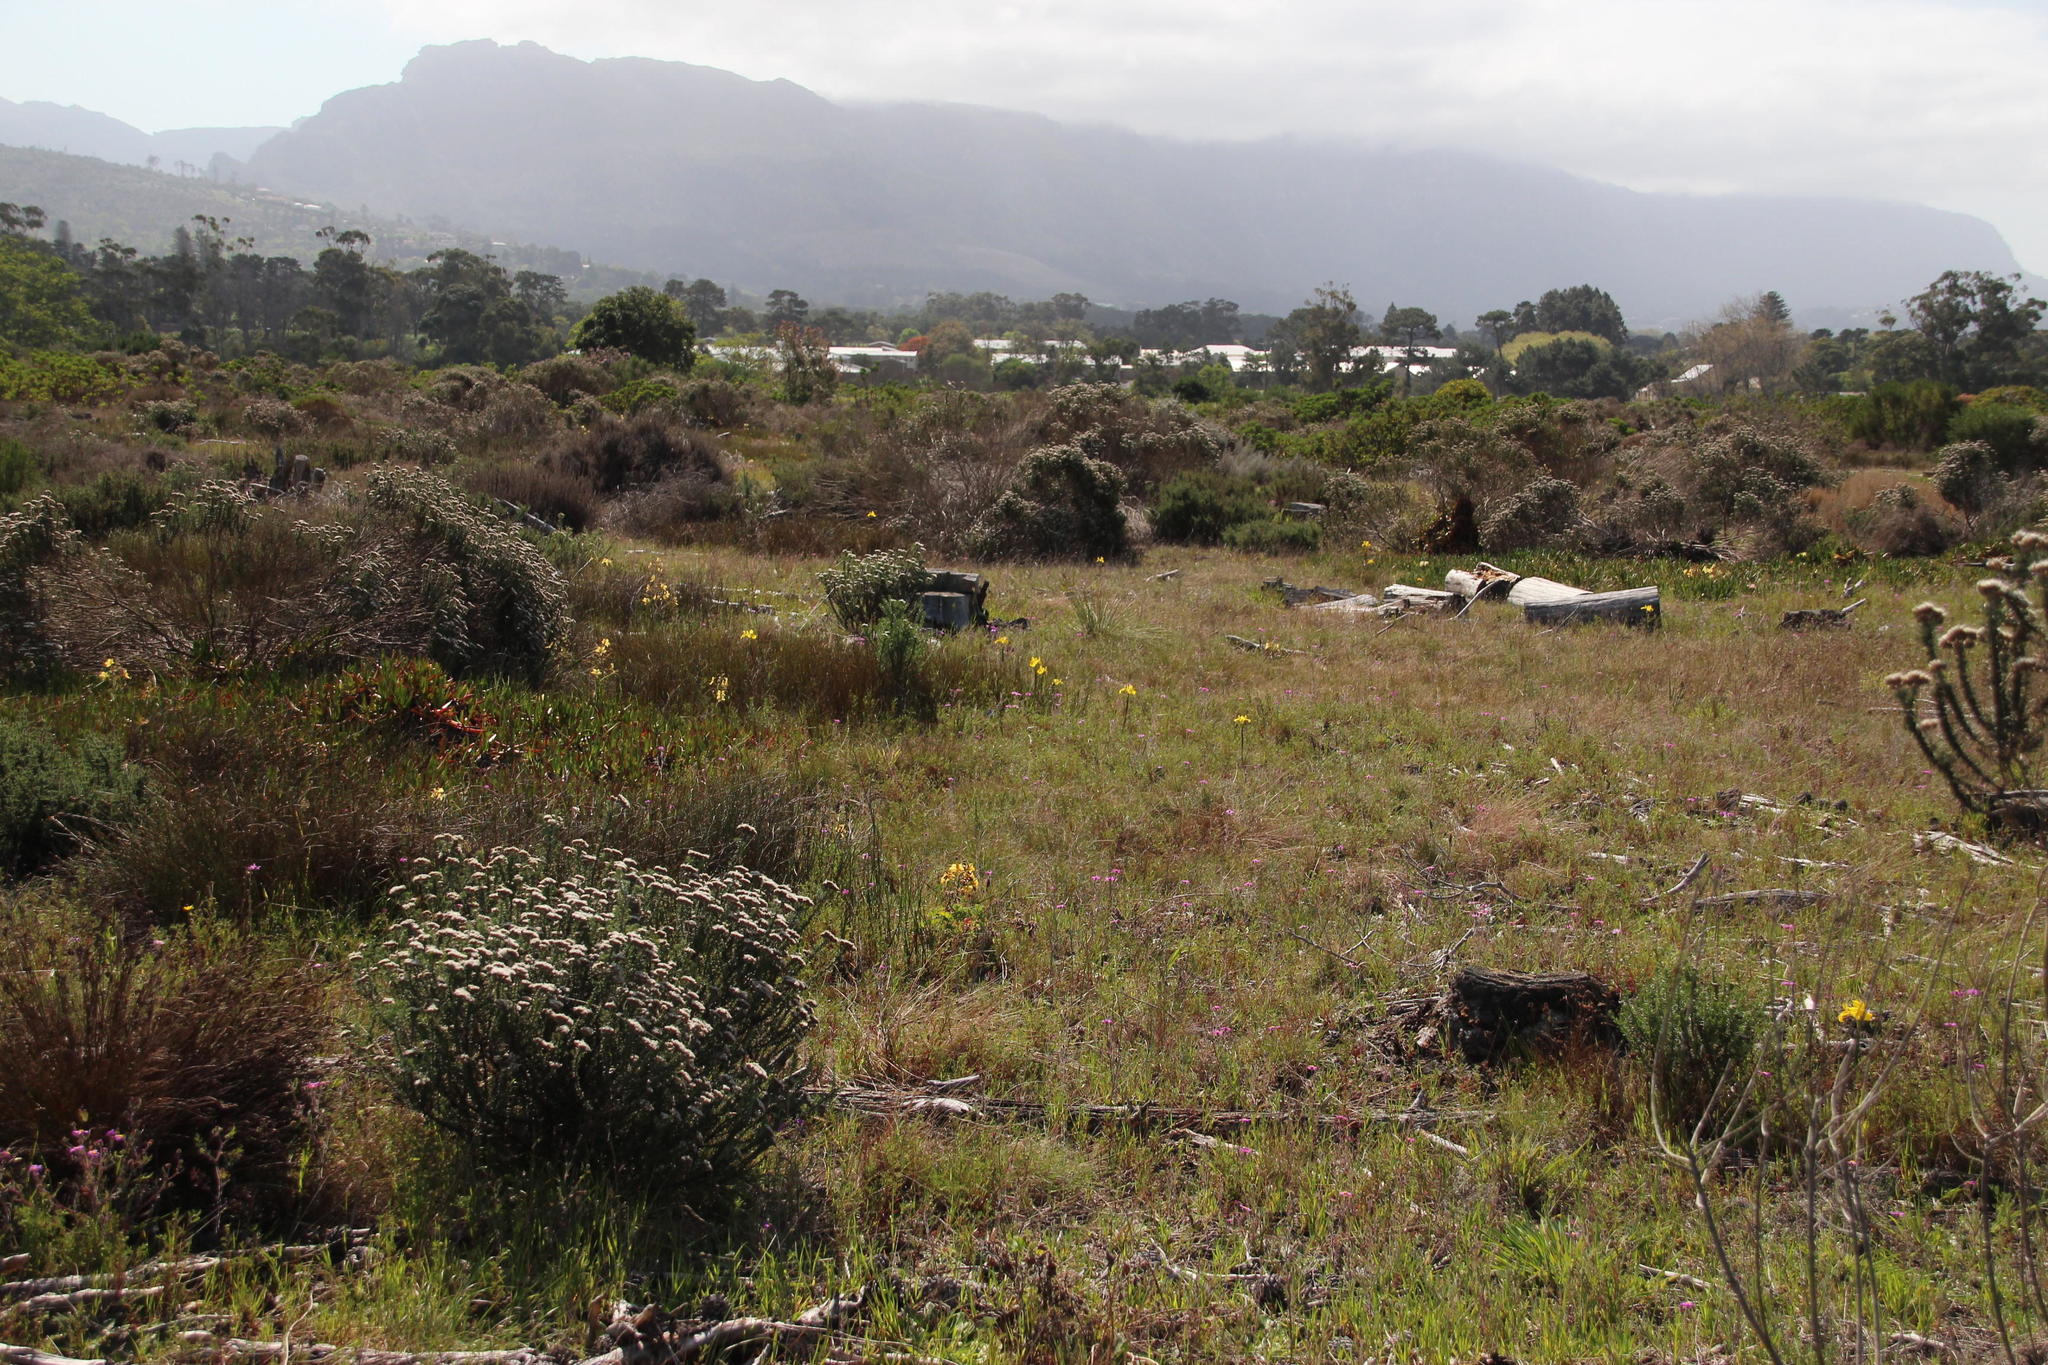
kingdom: Plantae
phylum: Tracheophyta
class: Liliopsida
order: Asparagales
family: Iridaceae
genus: Moraea
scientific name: Moraea neglecta
